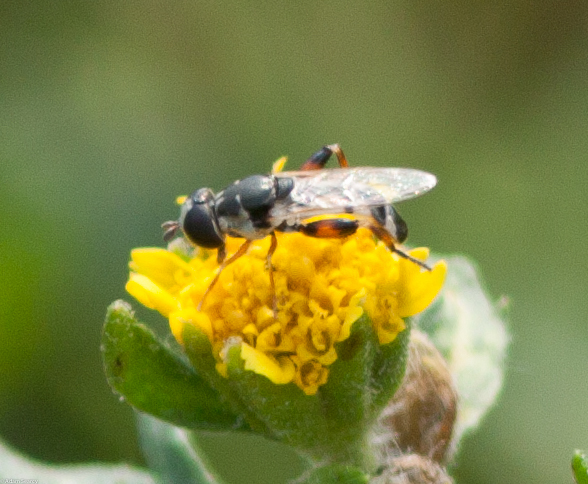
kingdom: Animalia
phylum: Arthropoda
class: Insecta
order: Diptera
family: Syrphidae
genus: Syritta
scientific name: Syritta flaviventris
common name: Syrphid fly
